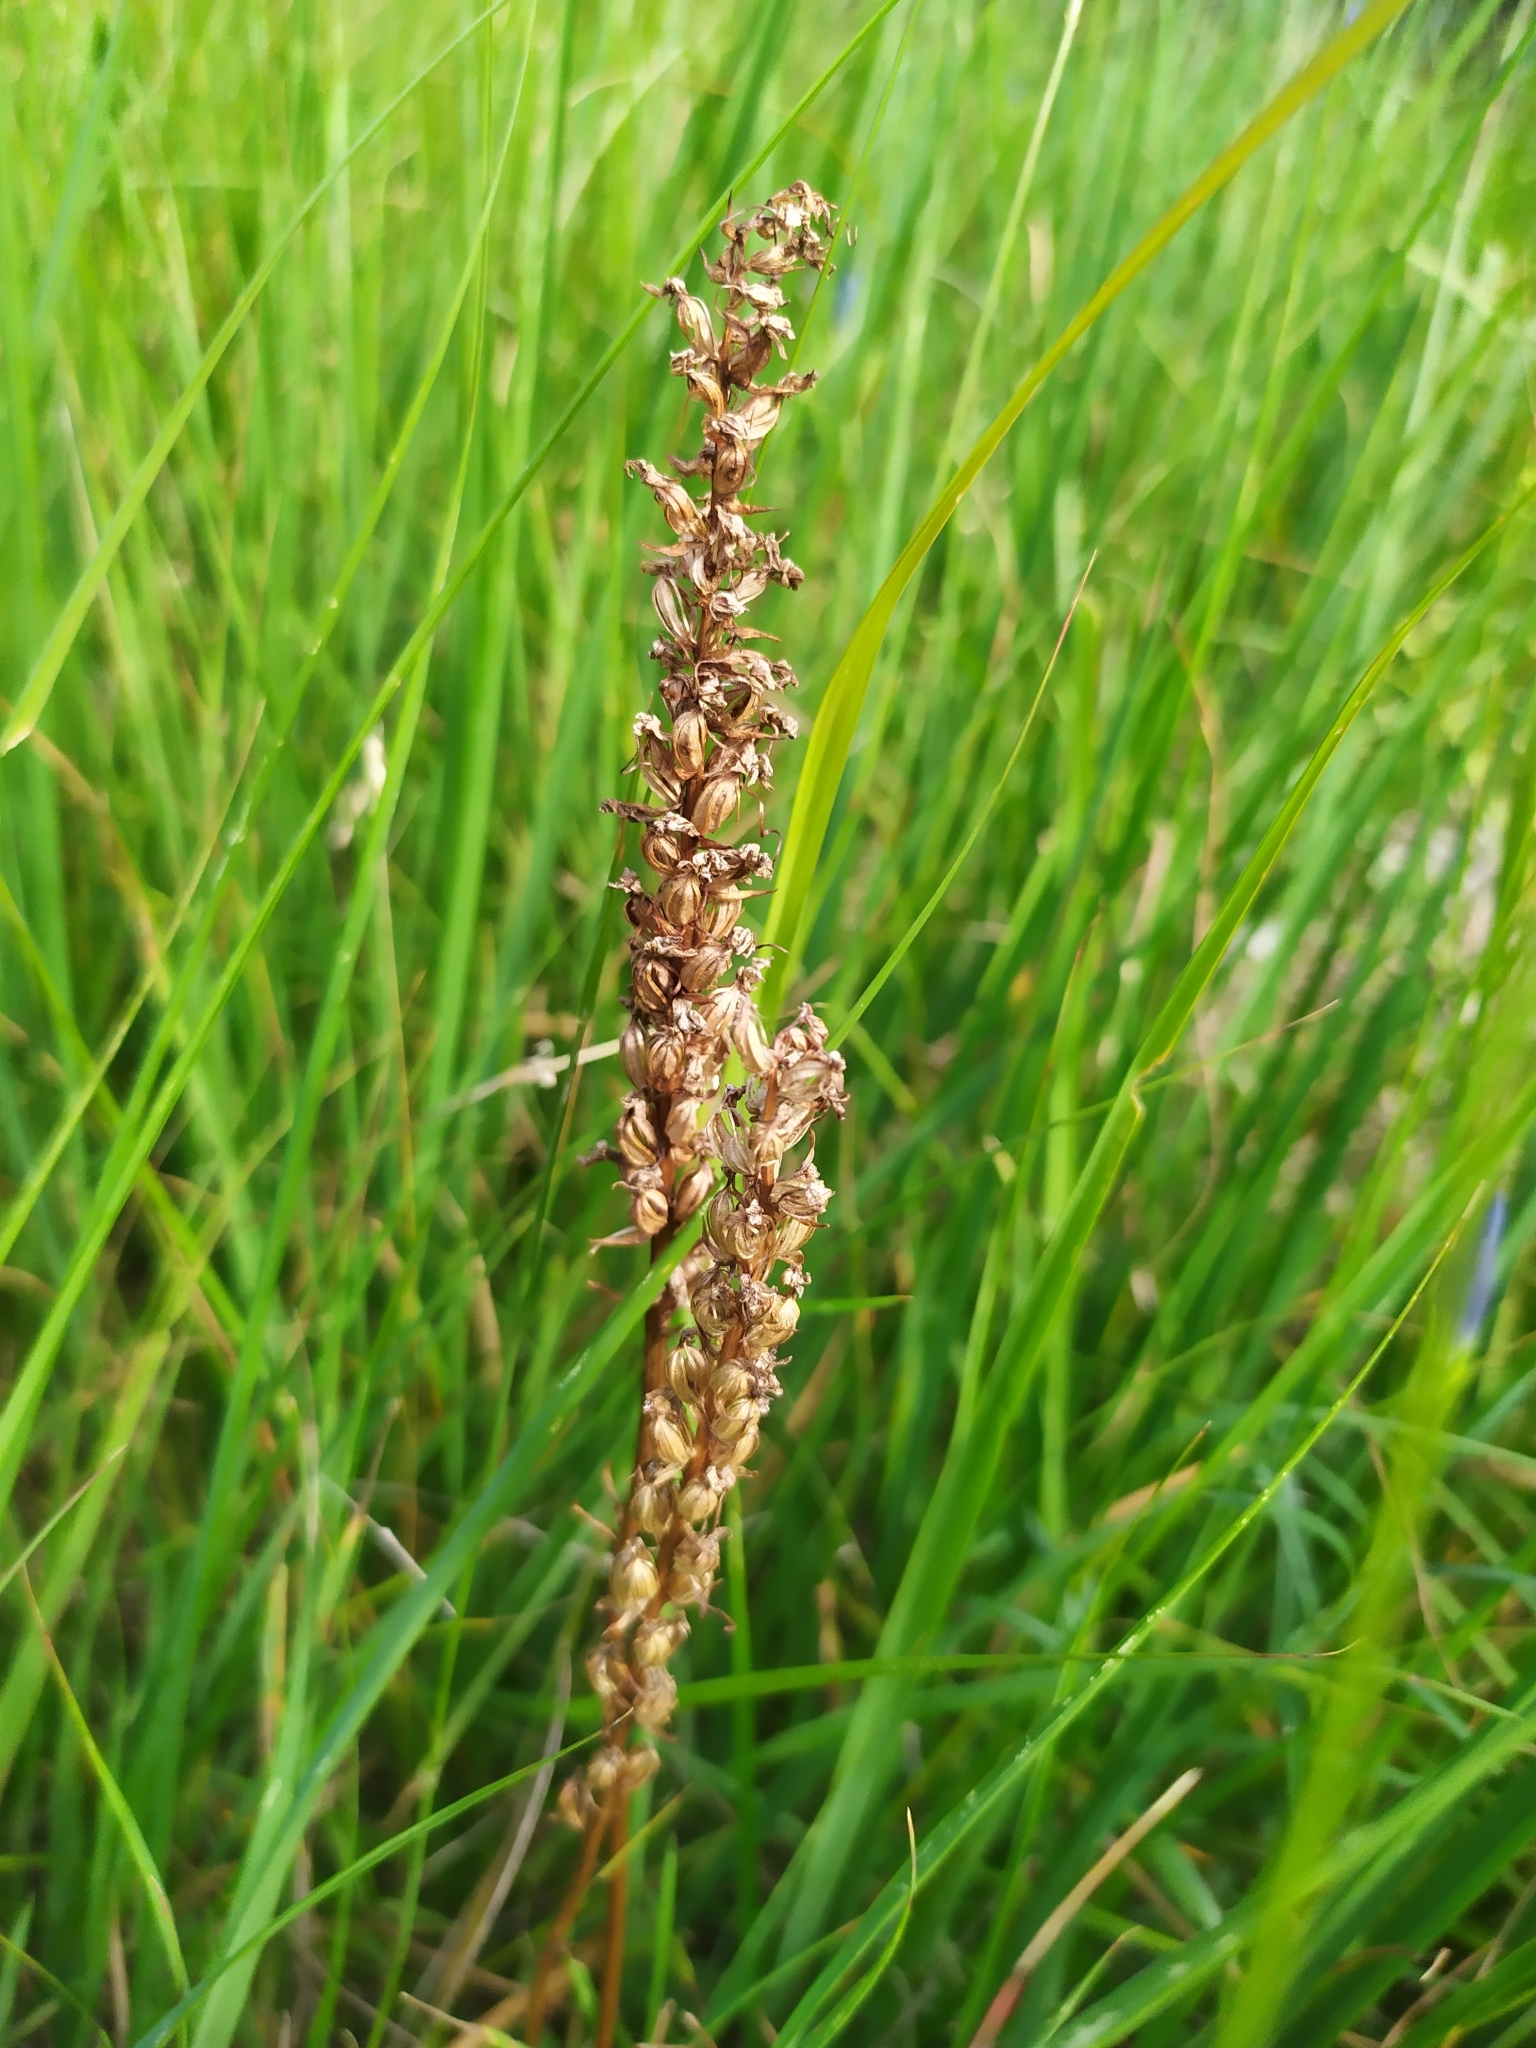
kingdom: Plantae
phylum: Tracheophyta
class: Liliopsida
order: Asparagales
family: Orchidaceae
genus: Gymnadenia
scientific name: Gymnadenia conopsea
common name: Fragrant orchid
